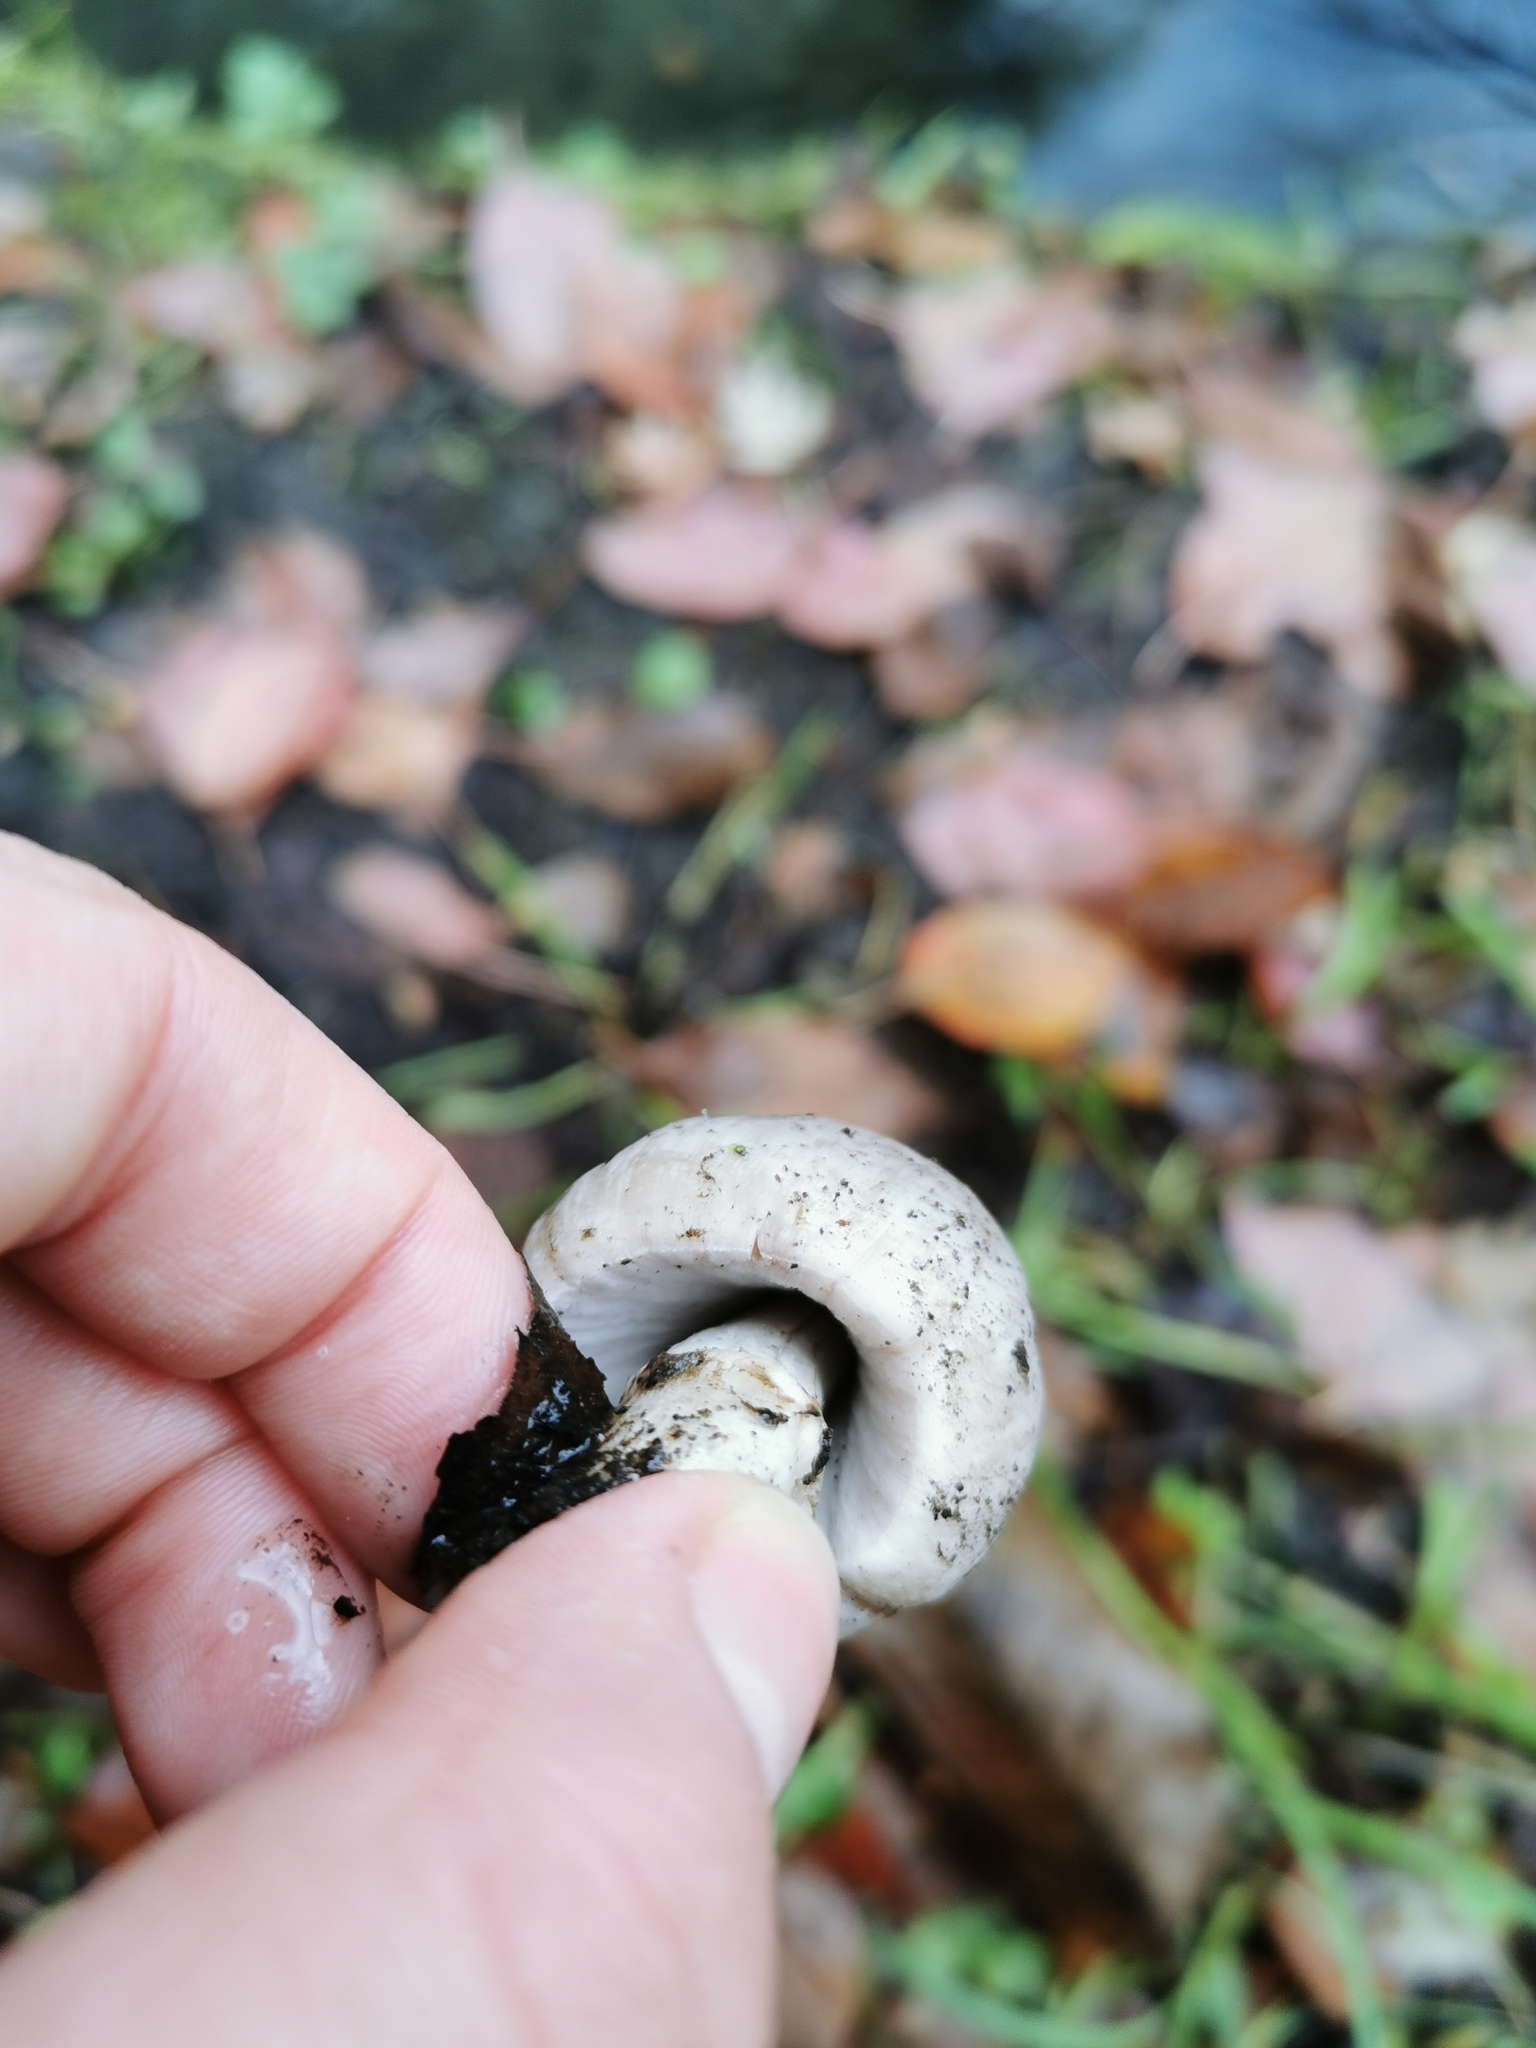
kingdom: Fungi
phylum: Basidiomycota
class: Agaricomycetes
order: Agaricales
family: Psathyrellaceae
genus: Coprinopsis
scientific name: Coprinopsis atramentaria
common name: Common ink-cap
